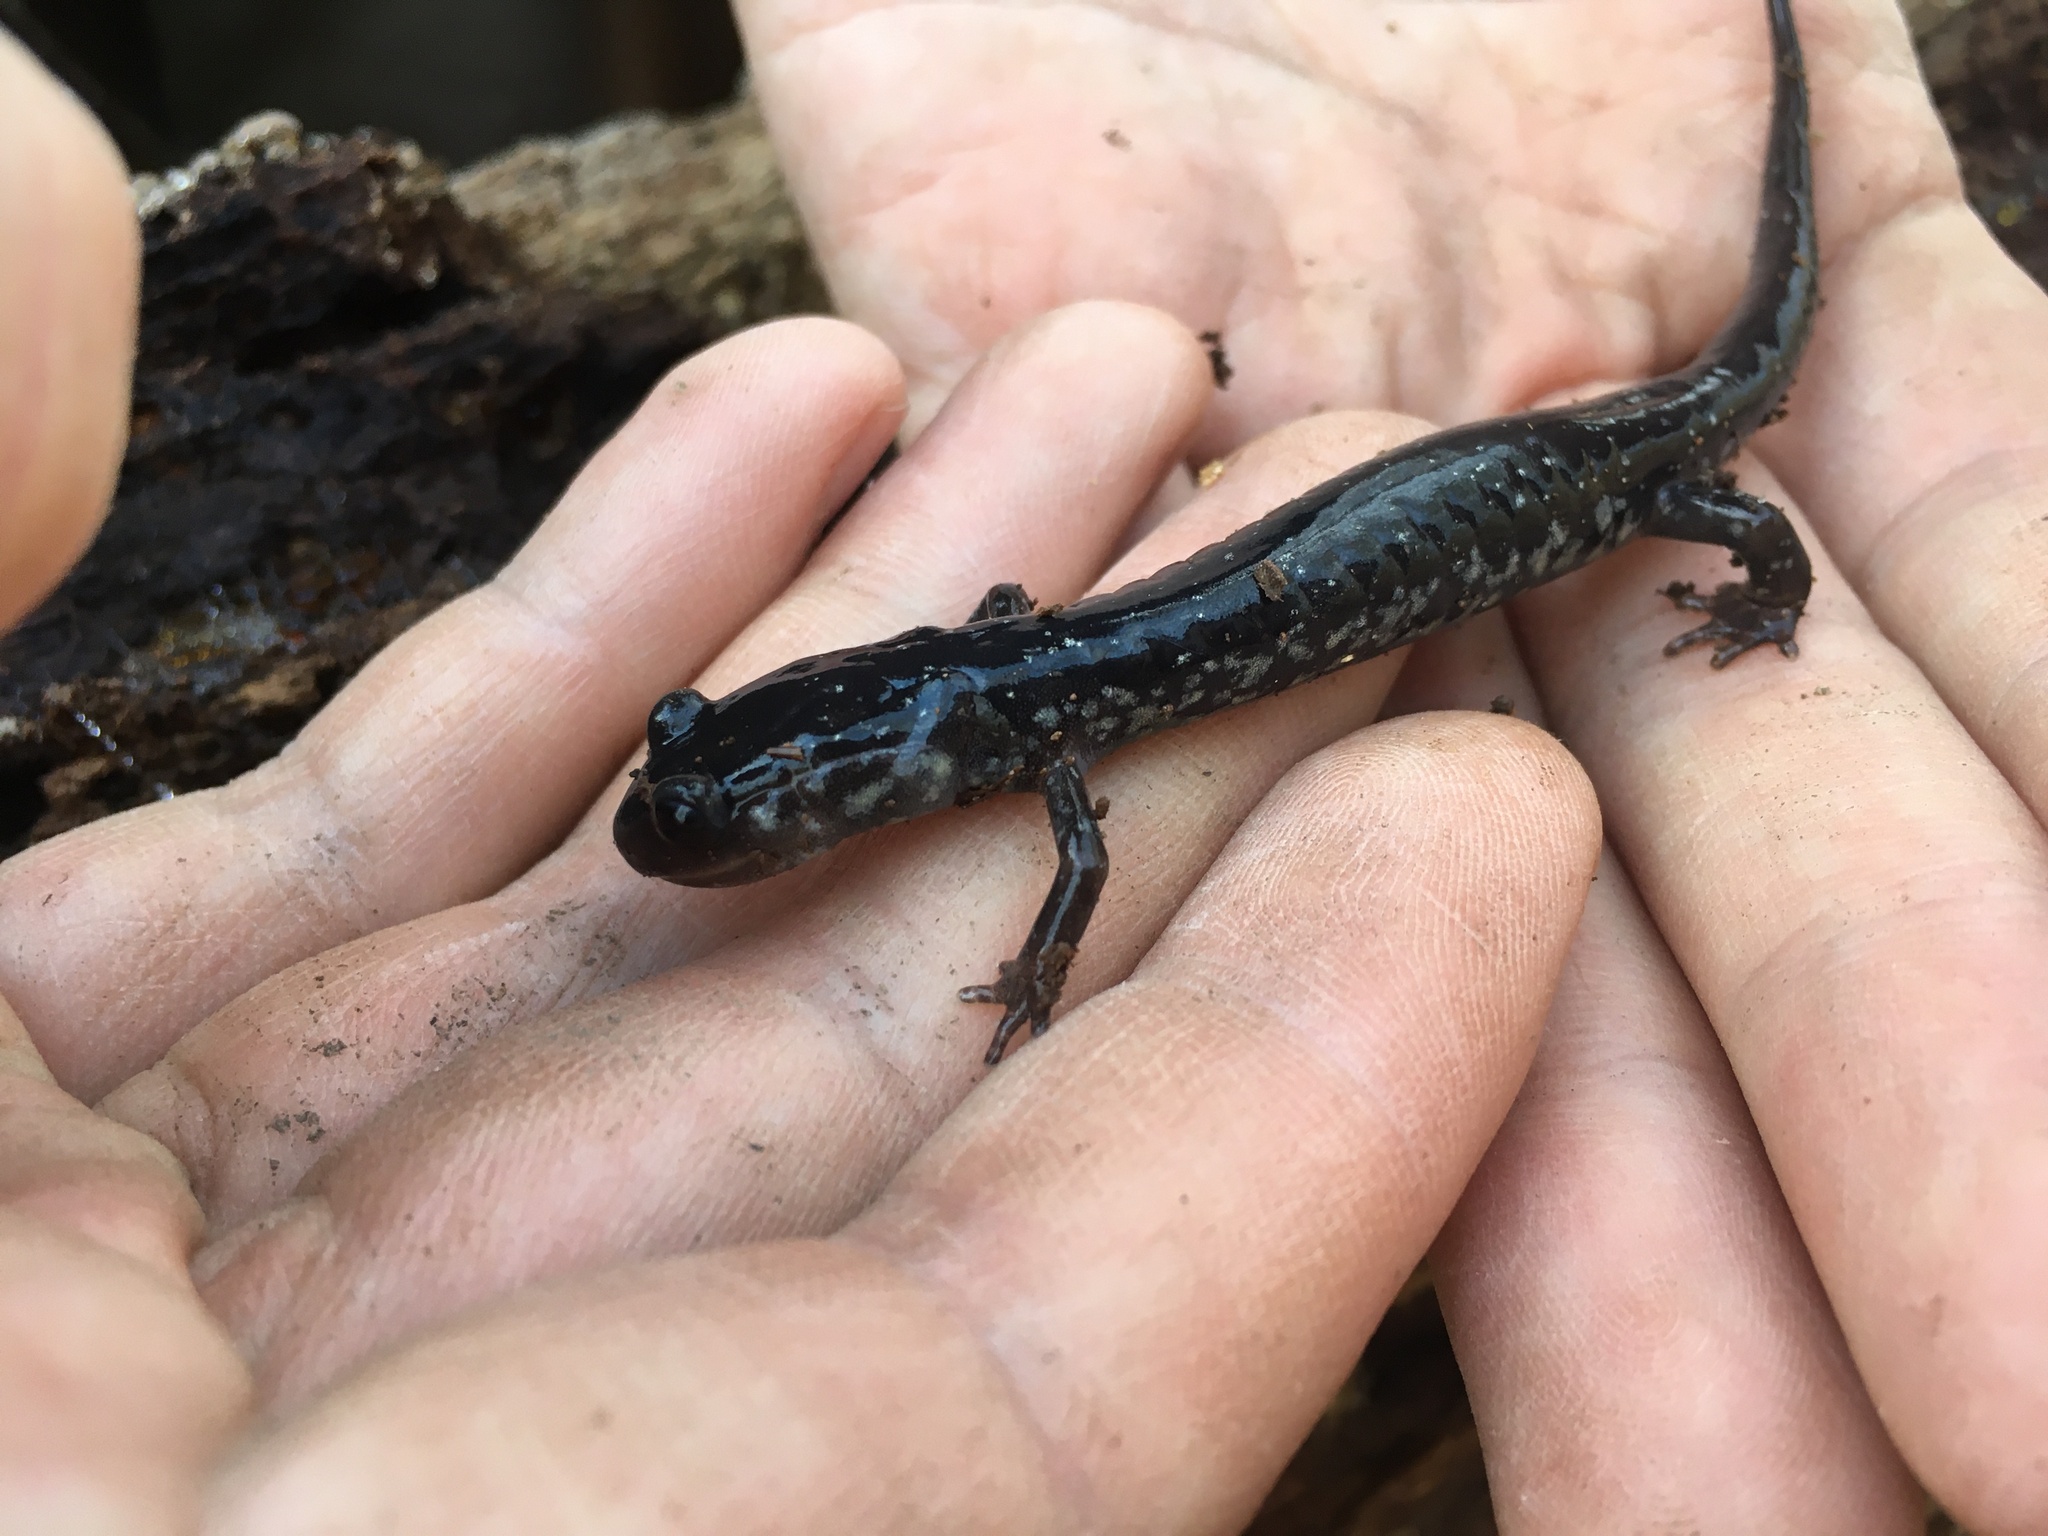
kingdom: Animalia
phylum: Chordata
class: Amphibia
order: Caudata
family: Plethodontidae
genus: Plethodon
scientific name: Plethodon chlorobryonis
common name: Atlantic coast slimy salamander
